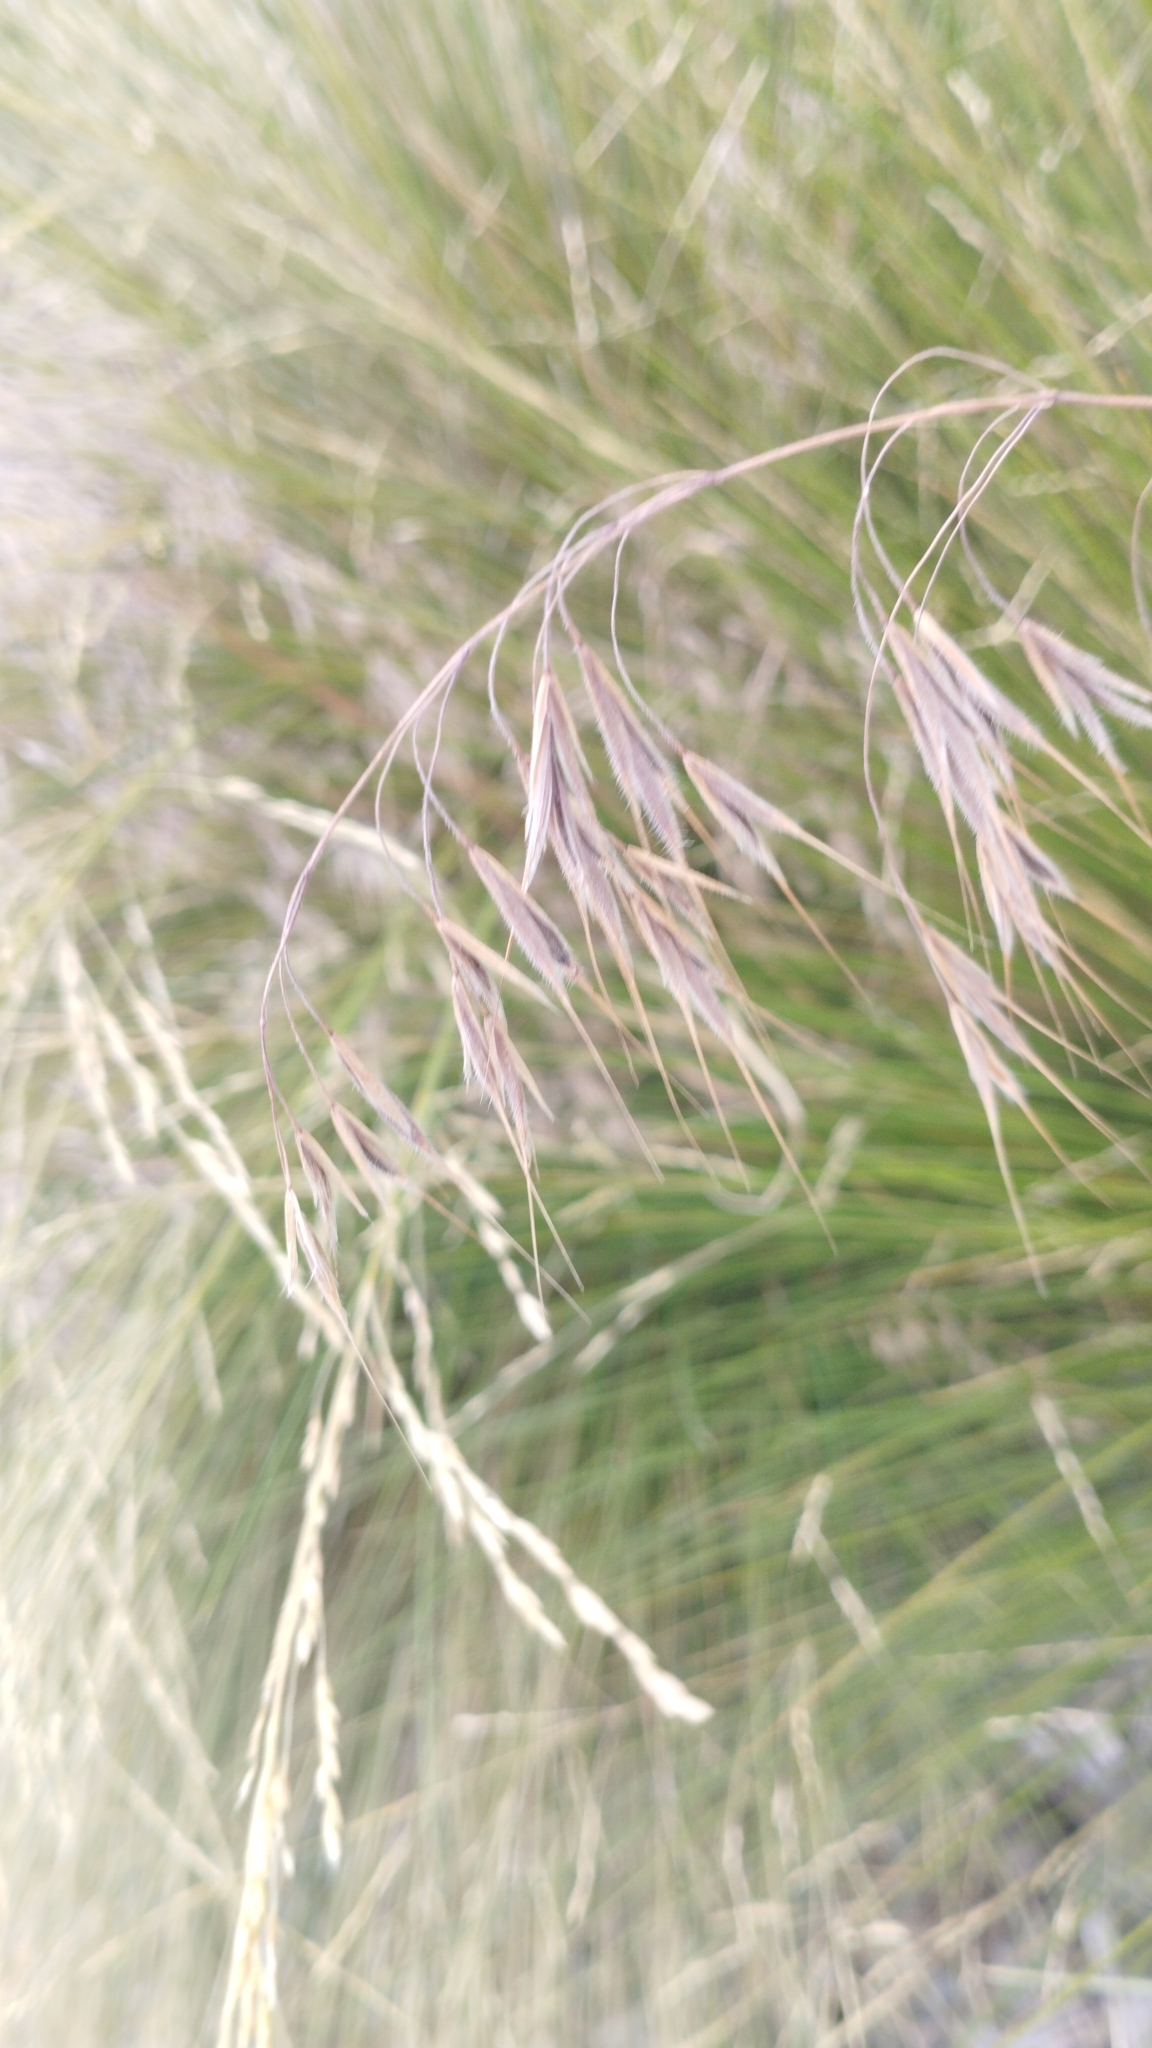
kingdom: Plantae
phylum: Tracheophyta
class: Liliopsida
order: Poales
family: Poaceae
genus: Bromus
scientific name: Bromus tectorum
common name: Cheatgrass
